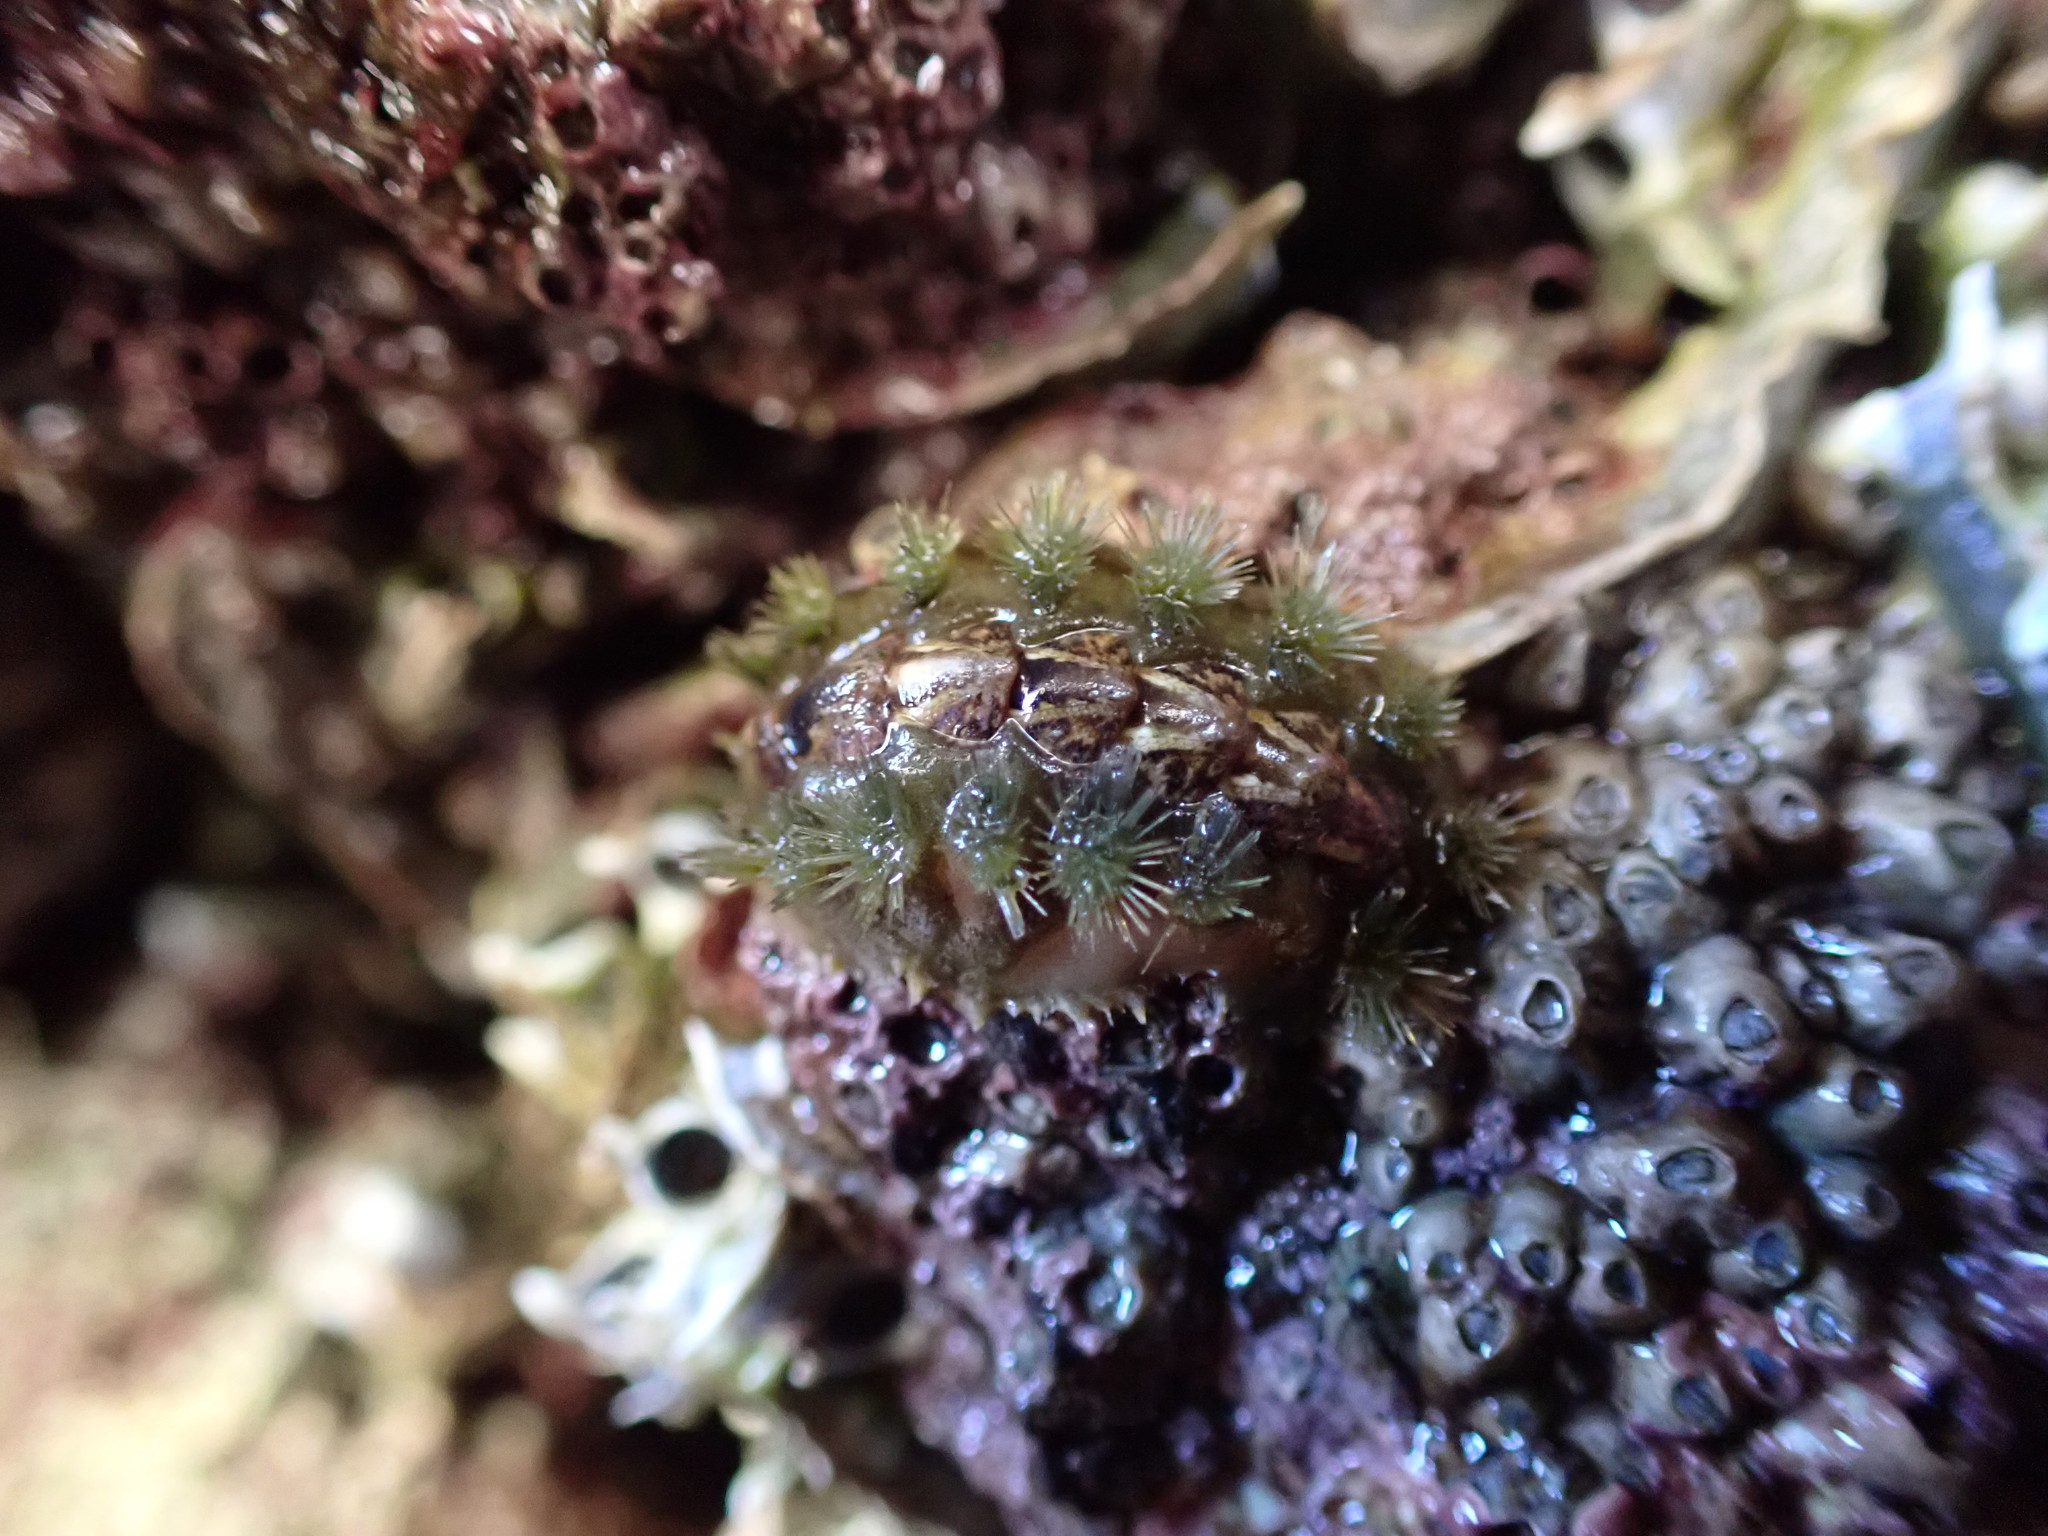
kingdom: Animalia
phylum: Mollusca
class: Polyplacophora
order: Chitonida
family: Acanthochitonidae
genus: Acanthochitona
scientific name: Acanthochitona zelandica
